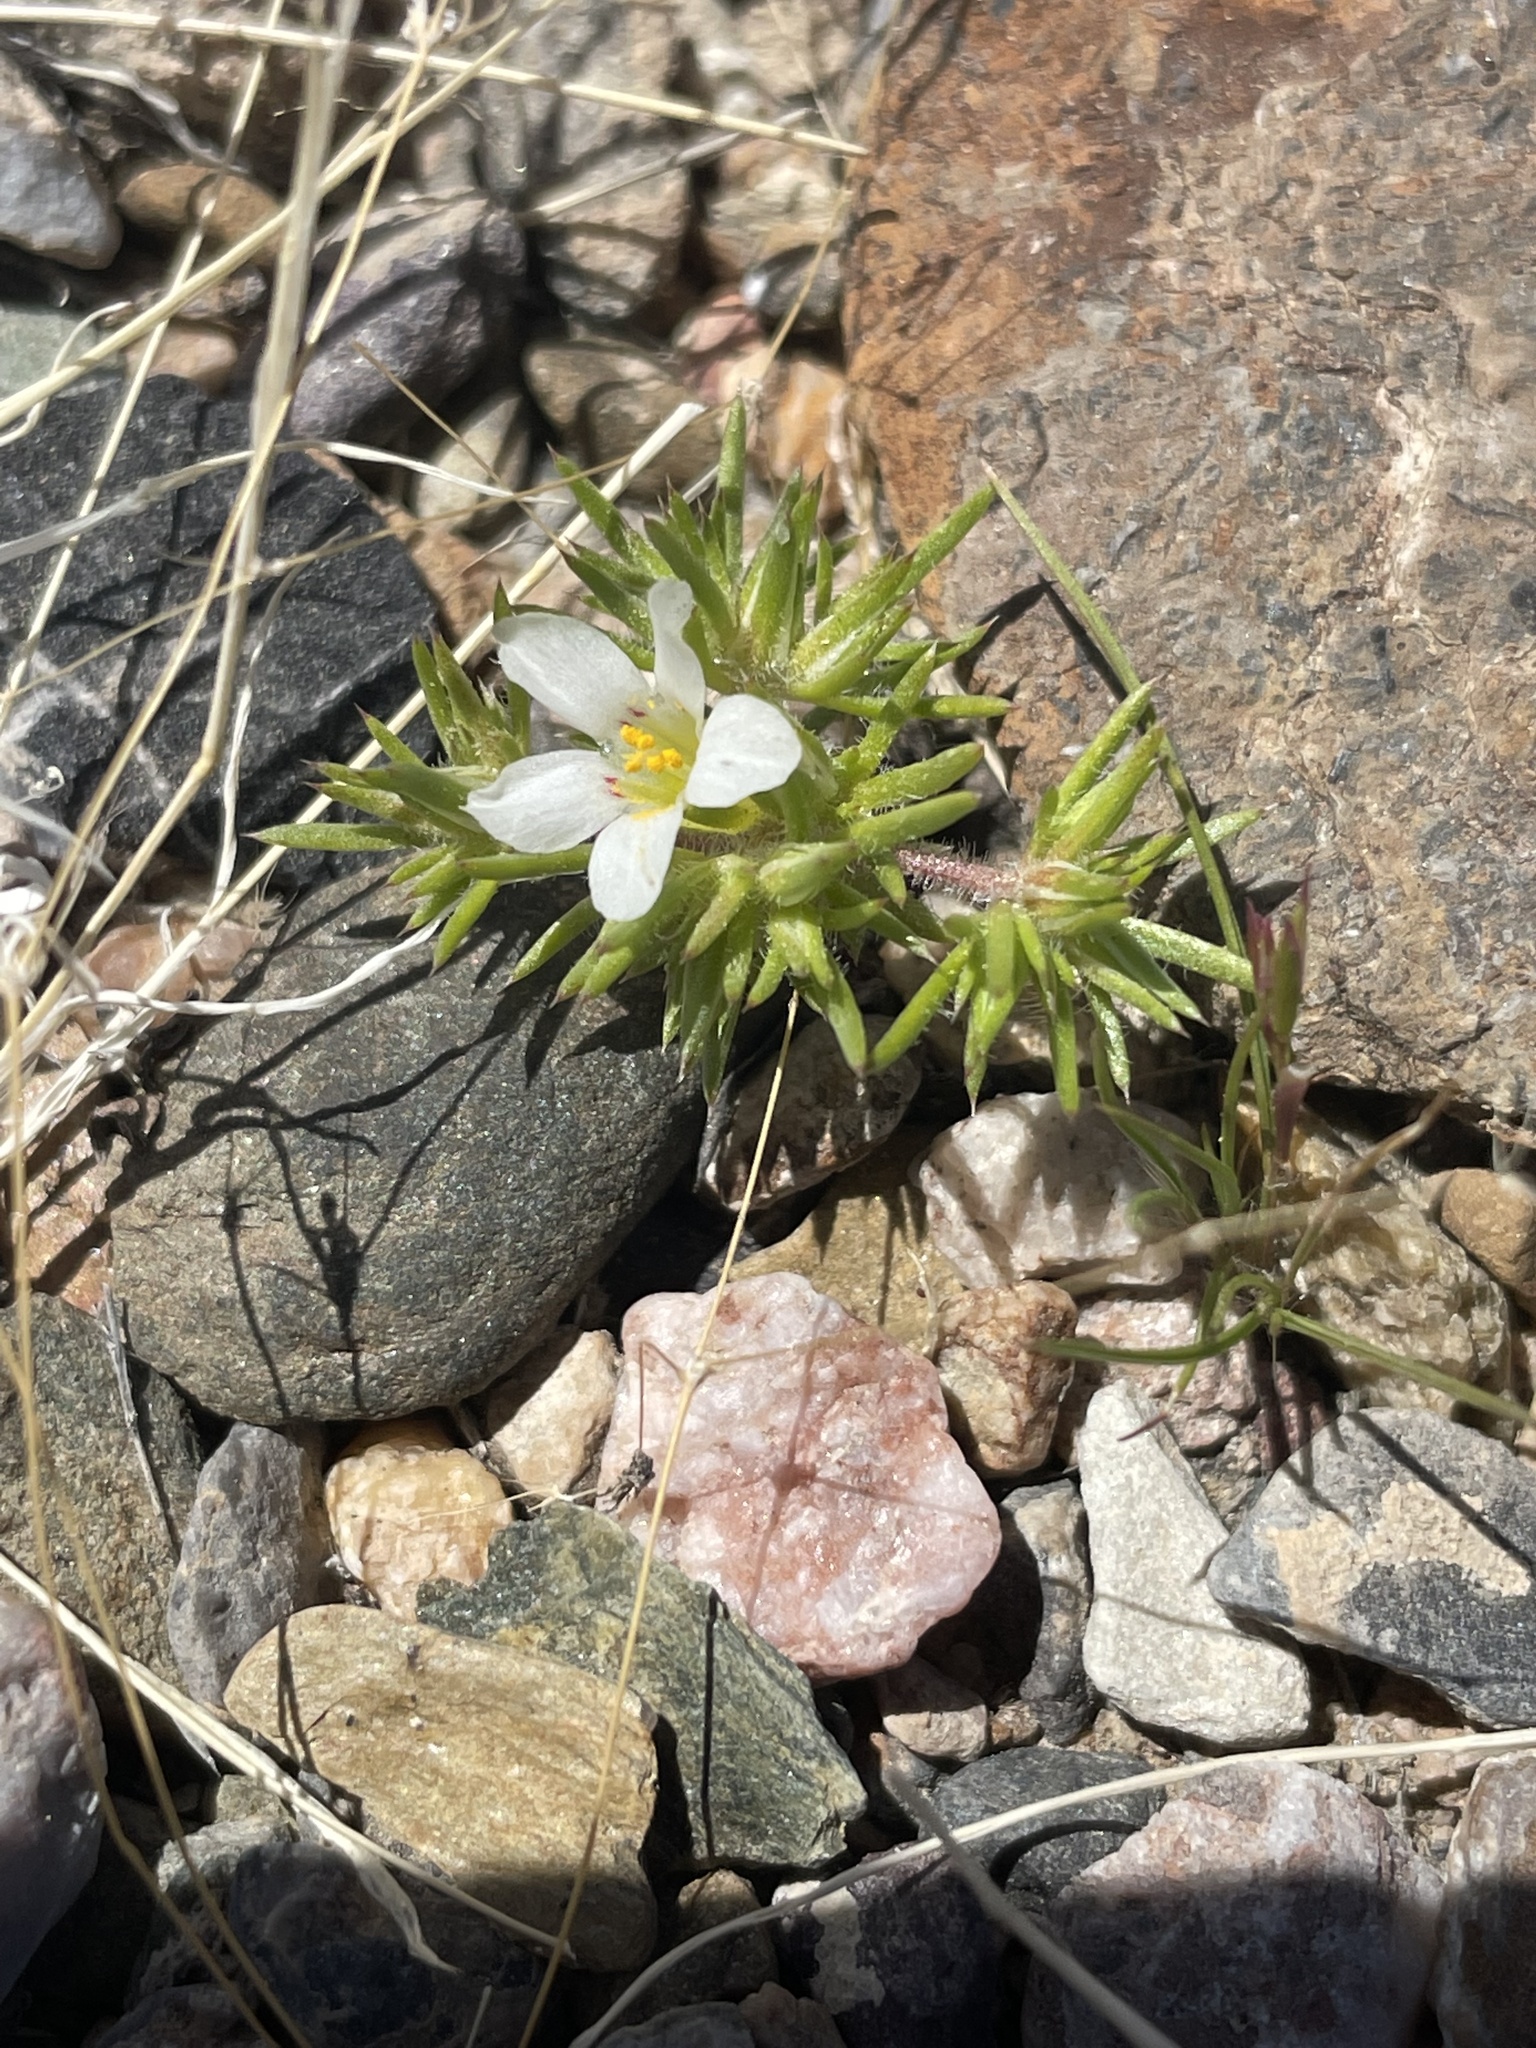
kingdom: Plantae
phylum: Tracheophyta
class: Magnoliopsida
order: Ericales
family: Polemoniaceae
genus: Linanthus
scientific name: Linanthus demissus
